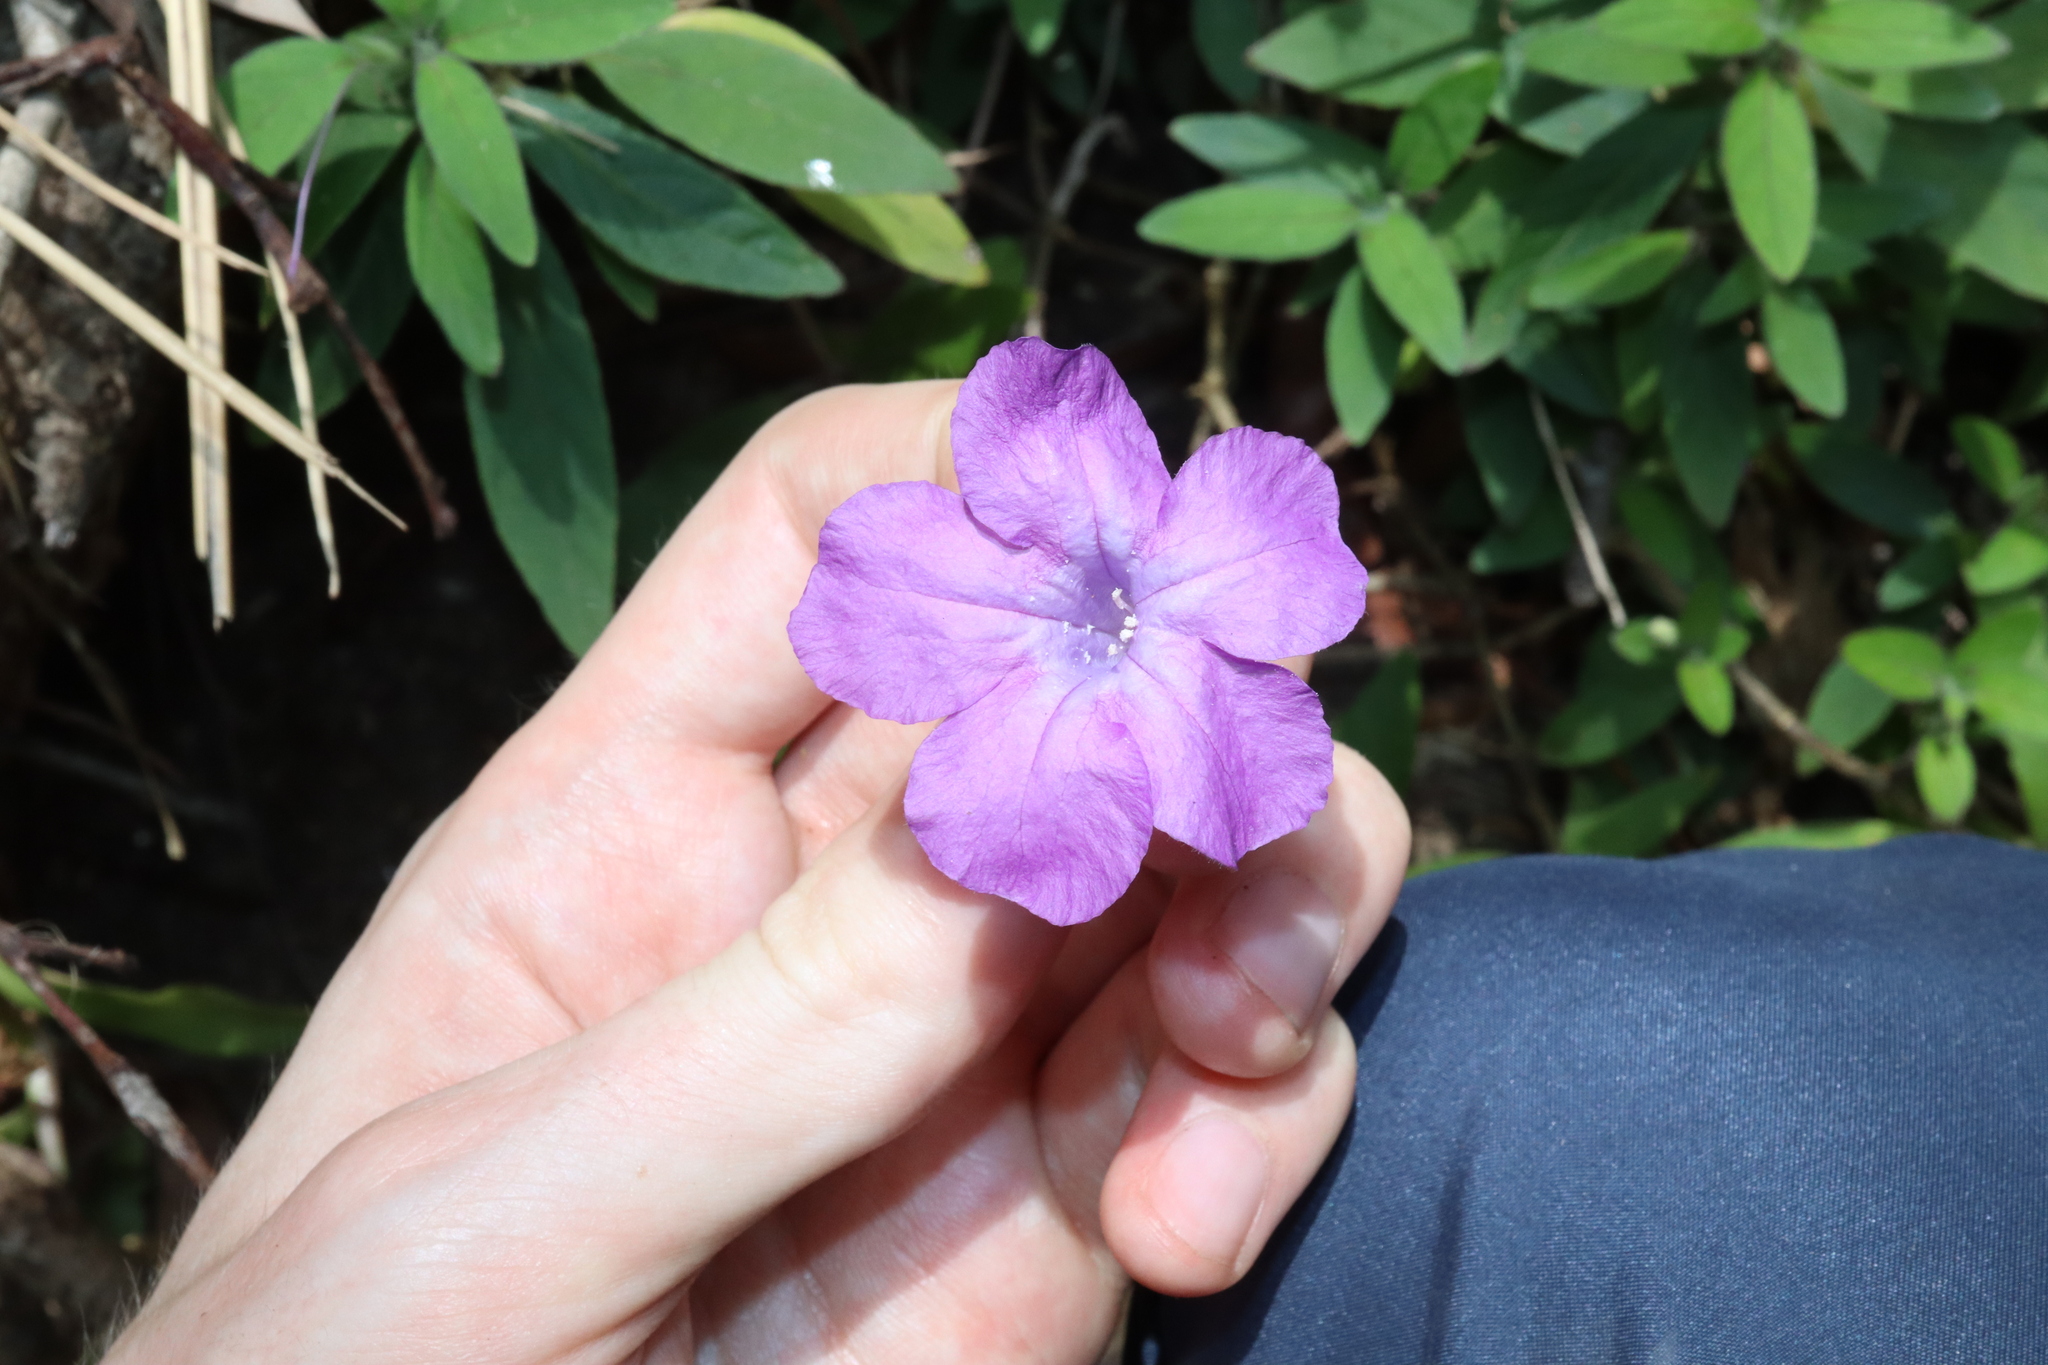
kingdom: Plantae
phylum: Tracheophyta
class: Magnoliopsida
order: Lamiales
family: Acanthaceae
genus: Ruellia
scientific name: Ruellia squarrosa
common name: Water bluebell
